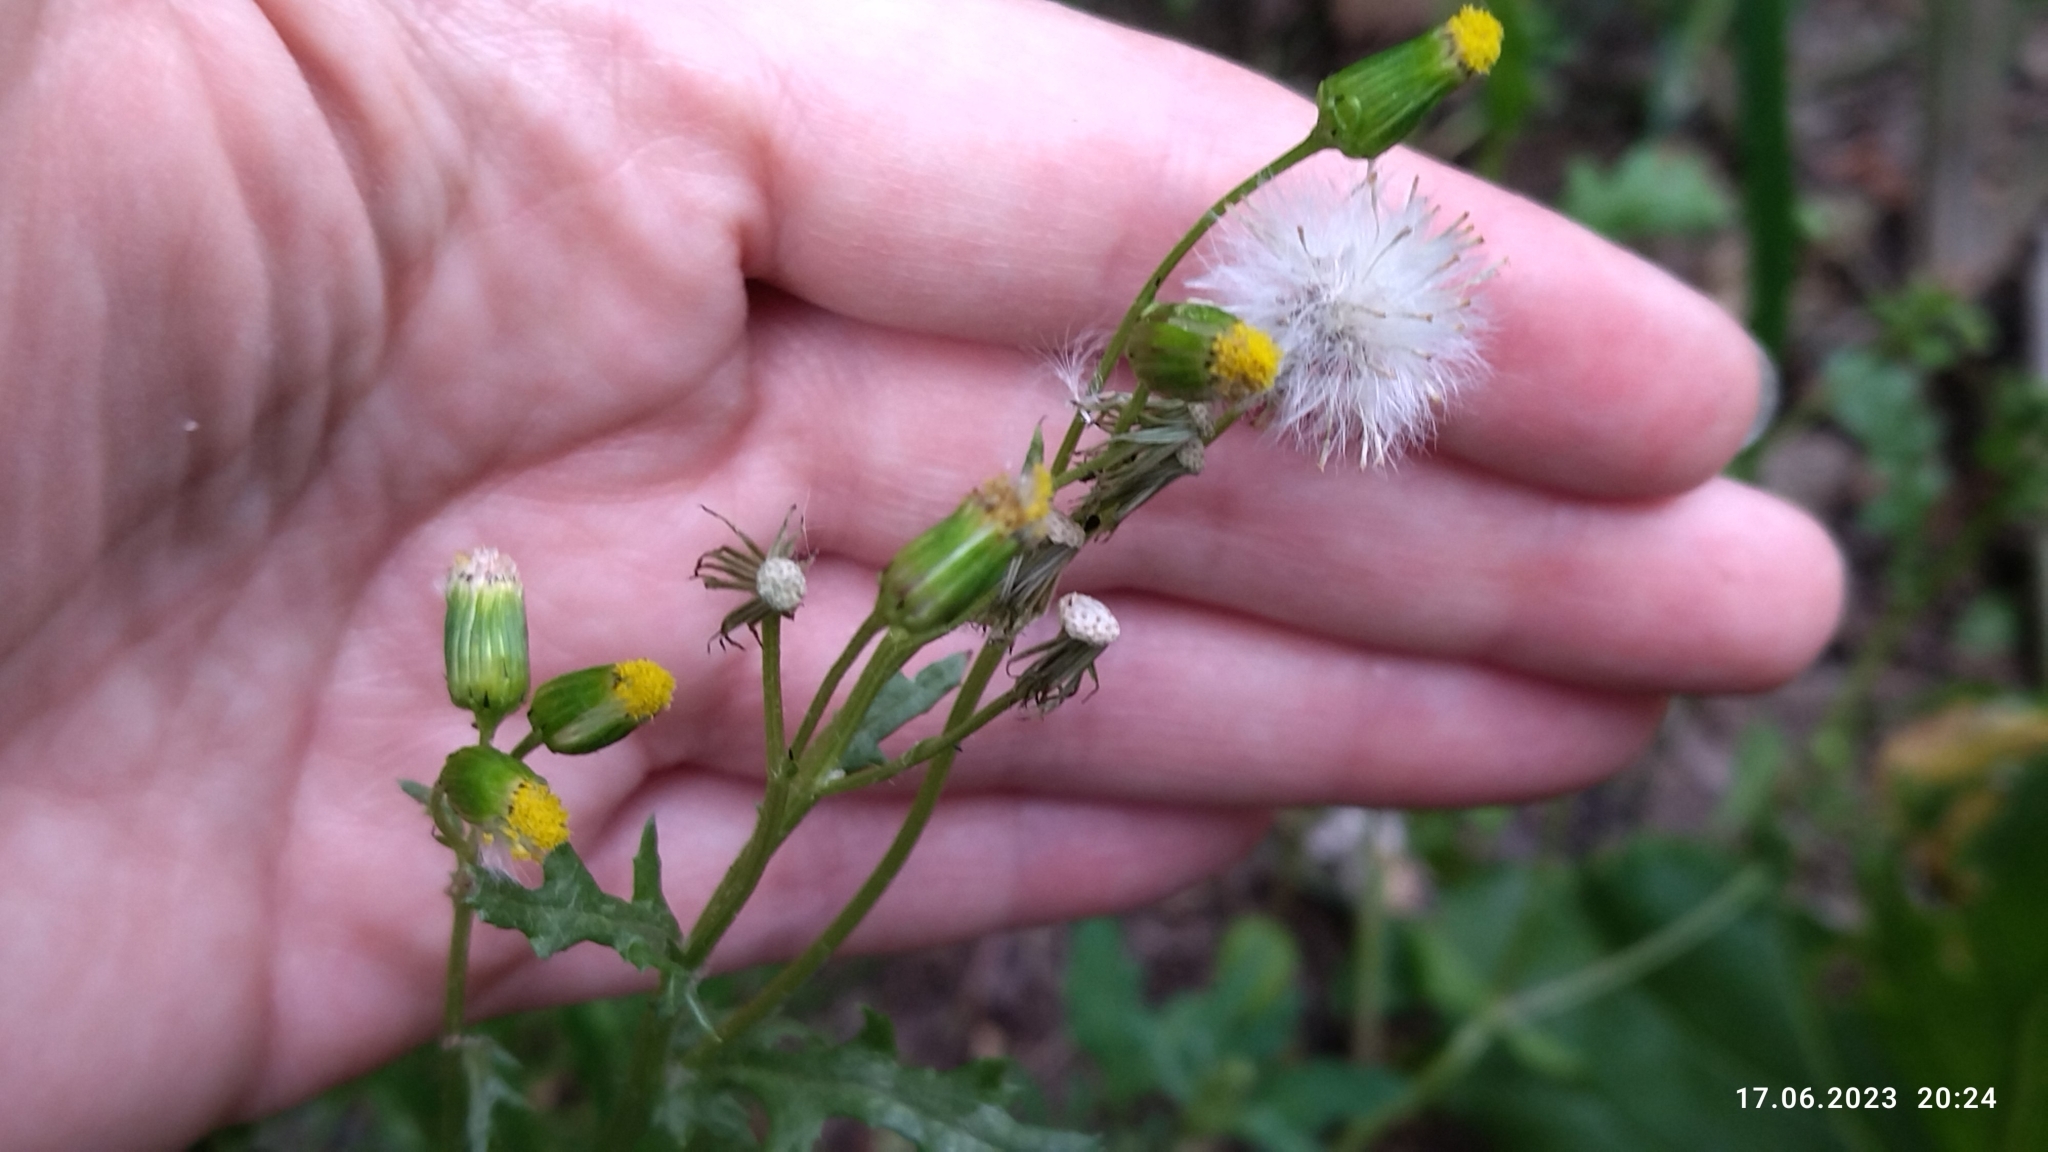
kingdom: Plantae
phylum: Tracheophyta
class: Magnoliopsida
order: Asterales
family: Asteraceae
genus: Senecio
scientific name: Senecio vulgaris
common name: Old-man-in-the-spring
